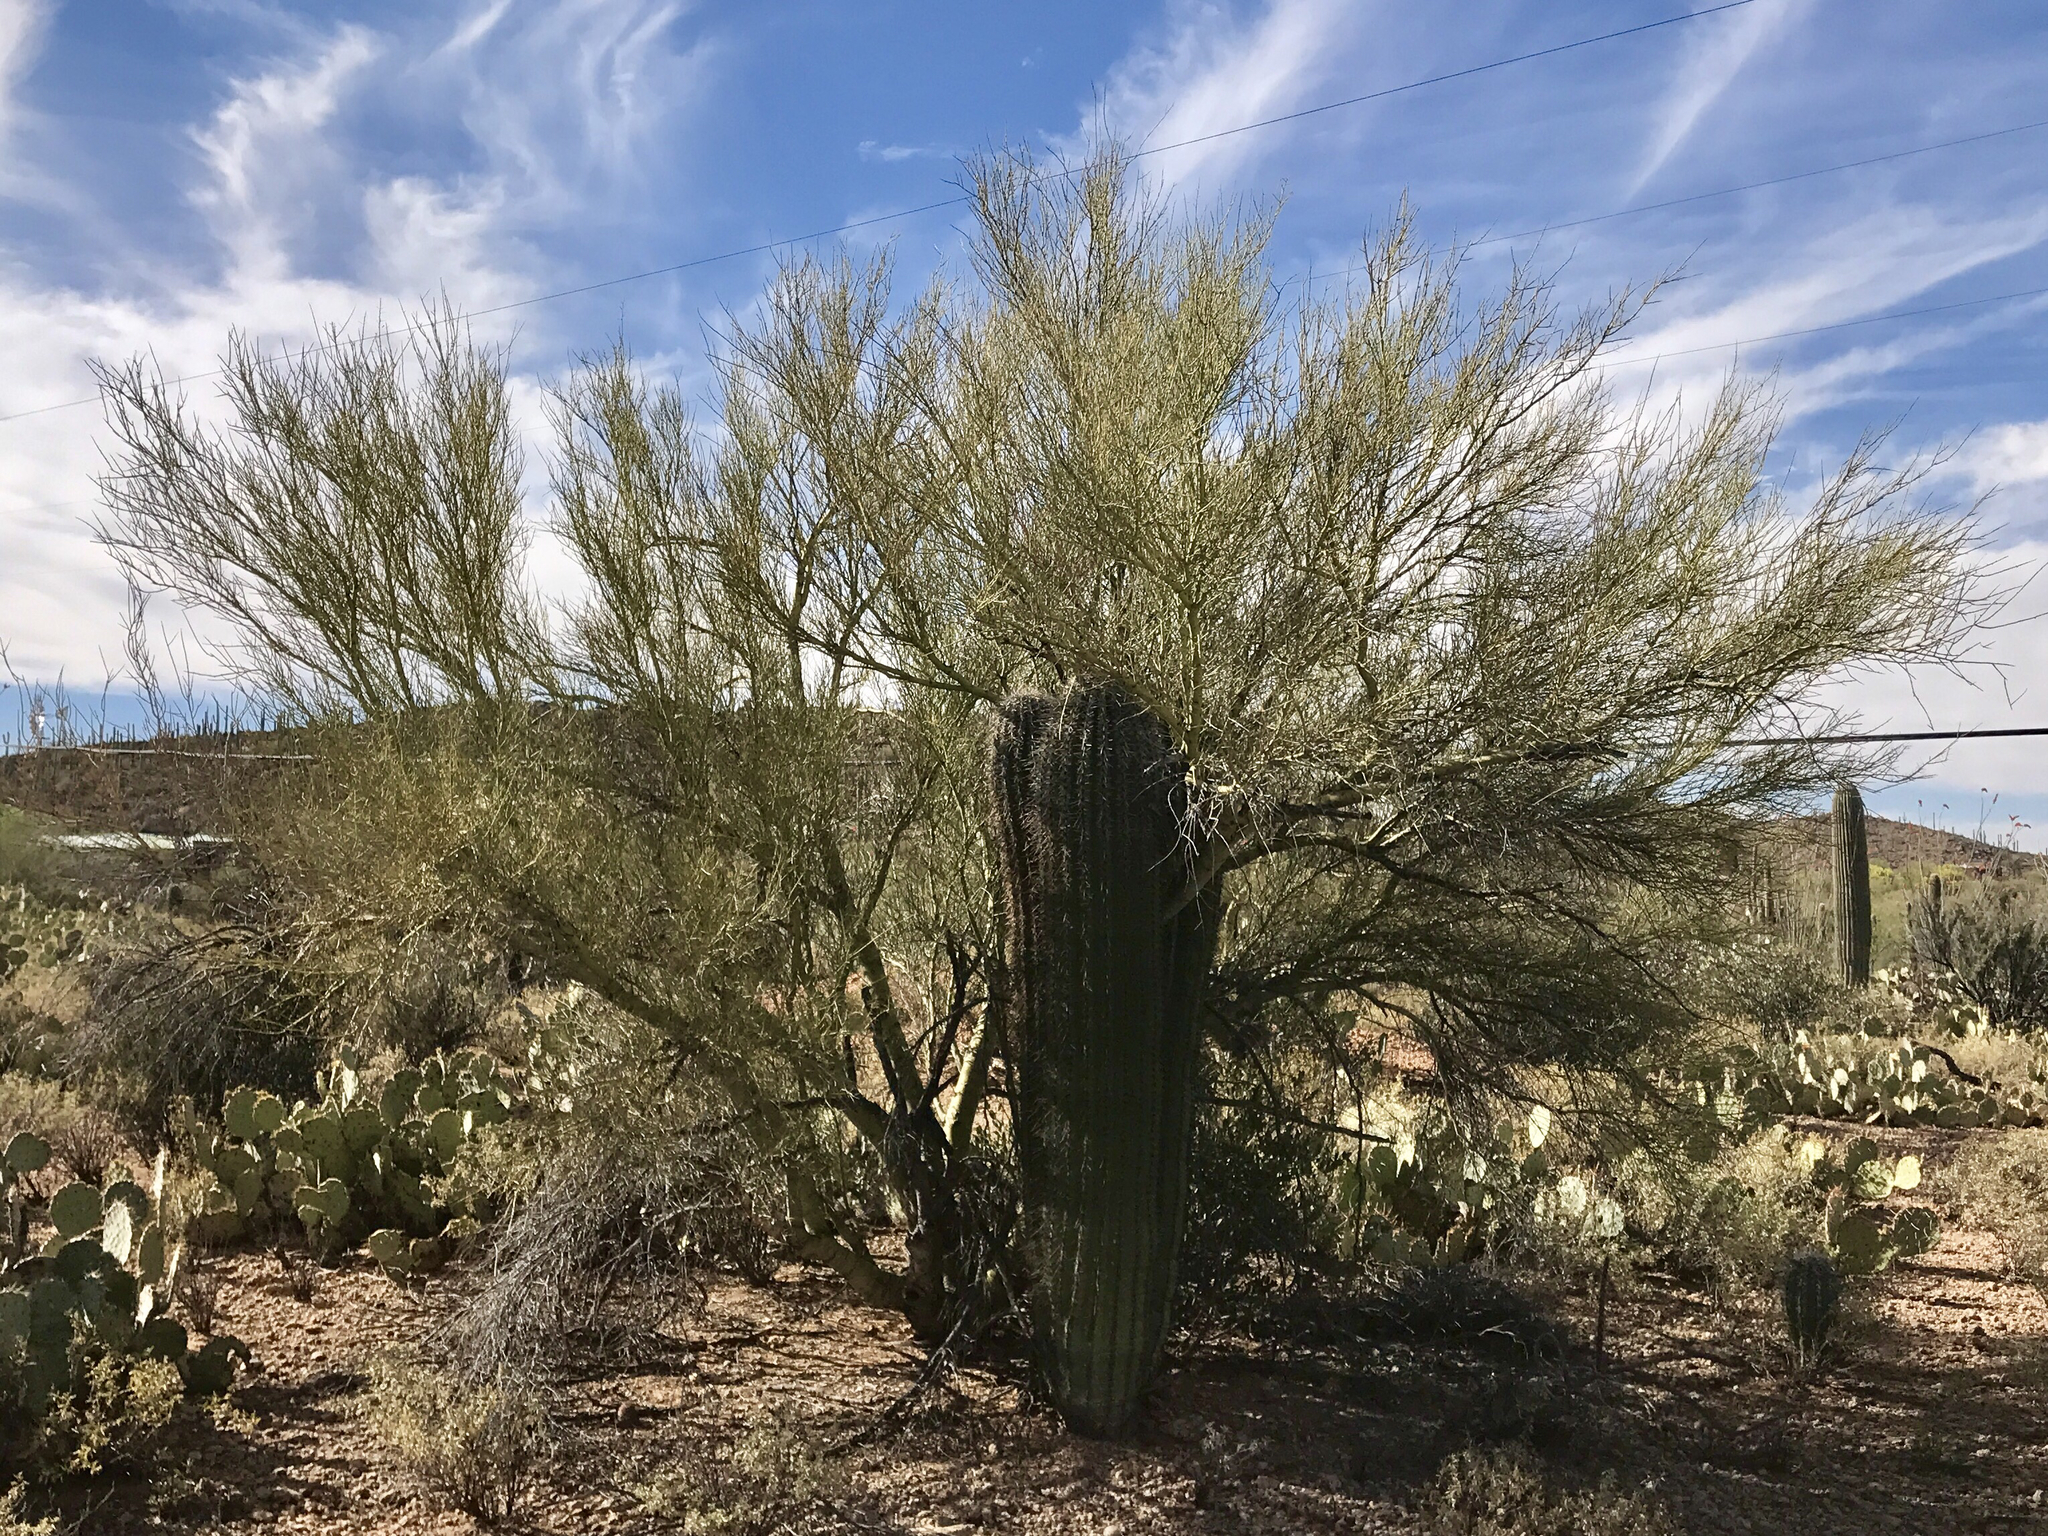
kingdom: Plantae
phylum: Tracheophyta
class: Magnoliopsida
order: Fabales
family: Fabaceae
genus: Parkinsonia
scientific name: Parkinsonia microphylla
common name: Yellow paloverde
